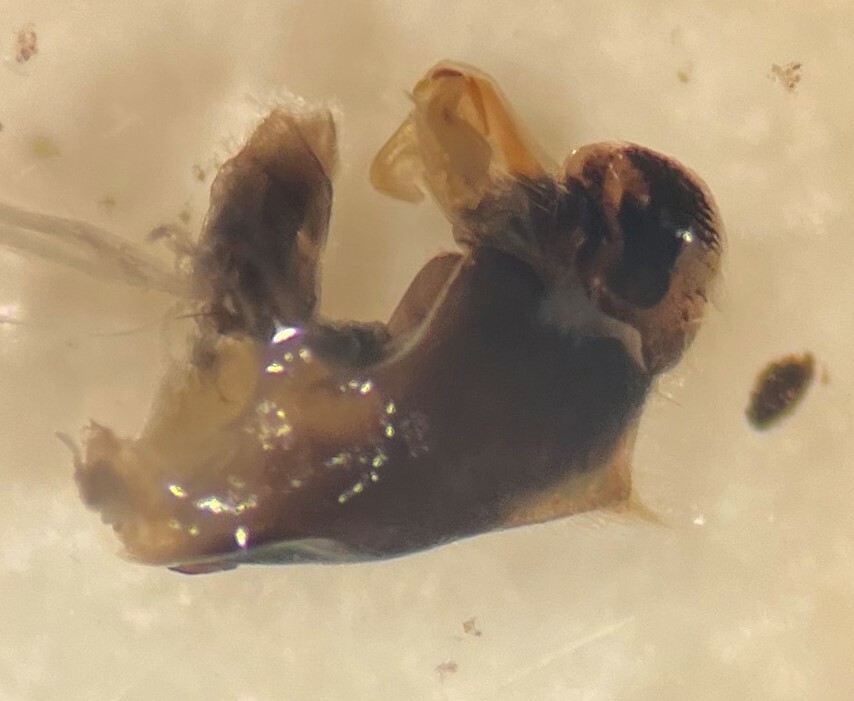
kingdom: Animalia
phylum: Arthropoda
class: Insecta
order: Hemiptera
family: Notonectidae
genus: Notonecta
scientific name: Notonecta petrunkevitchi
